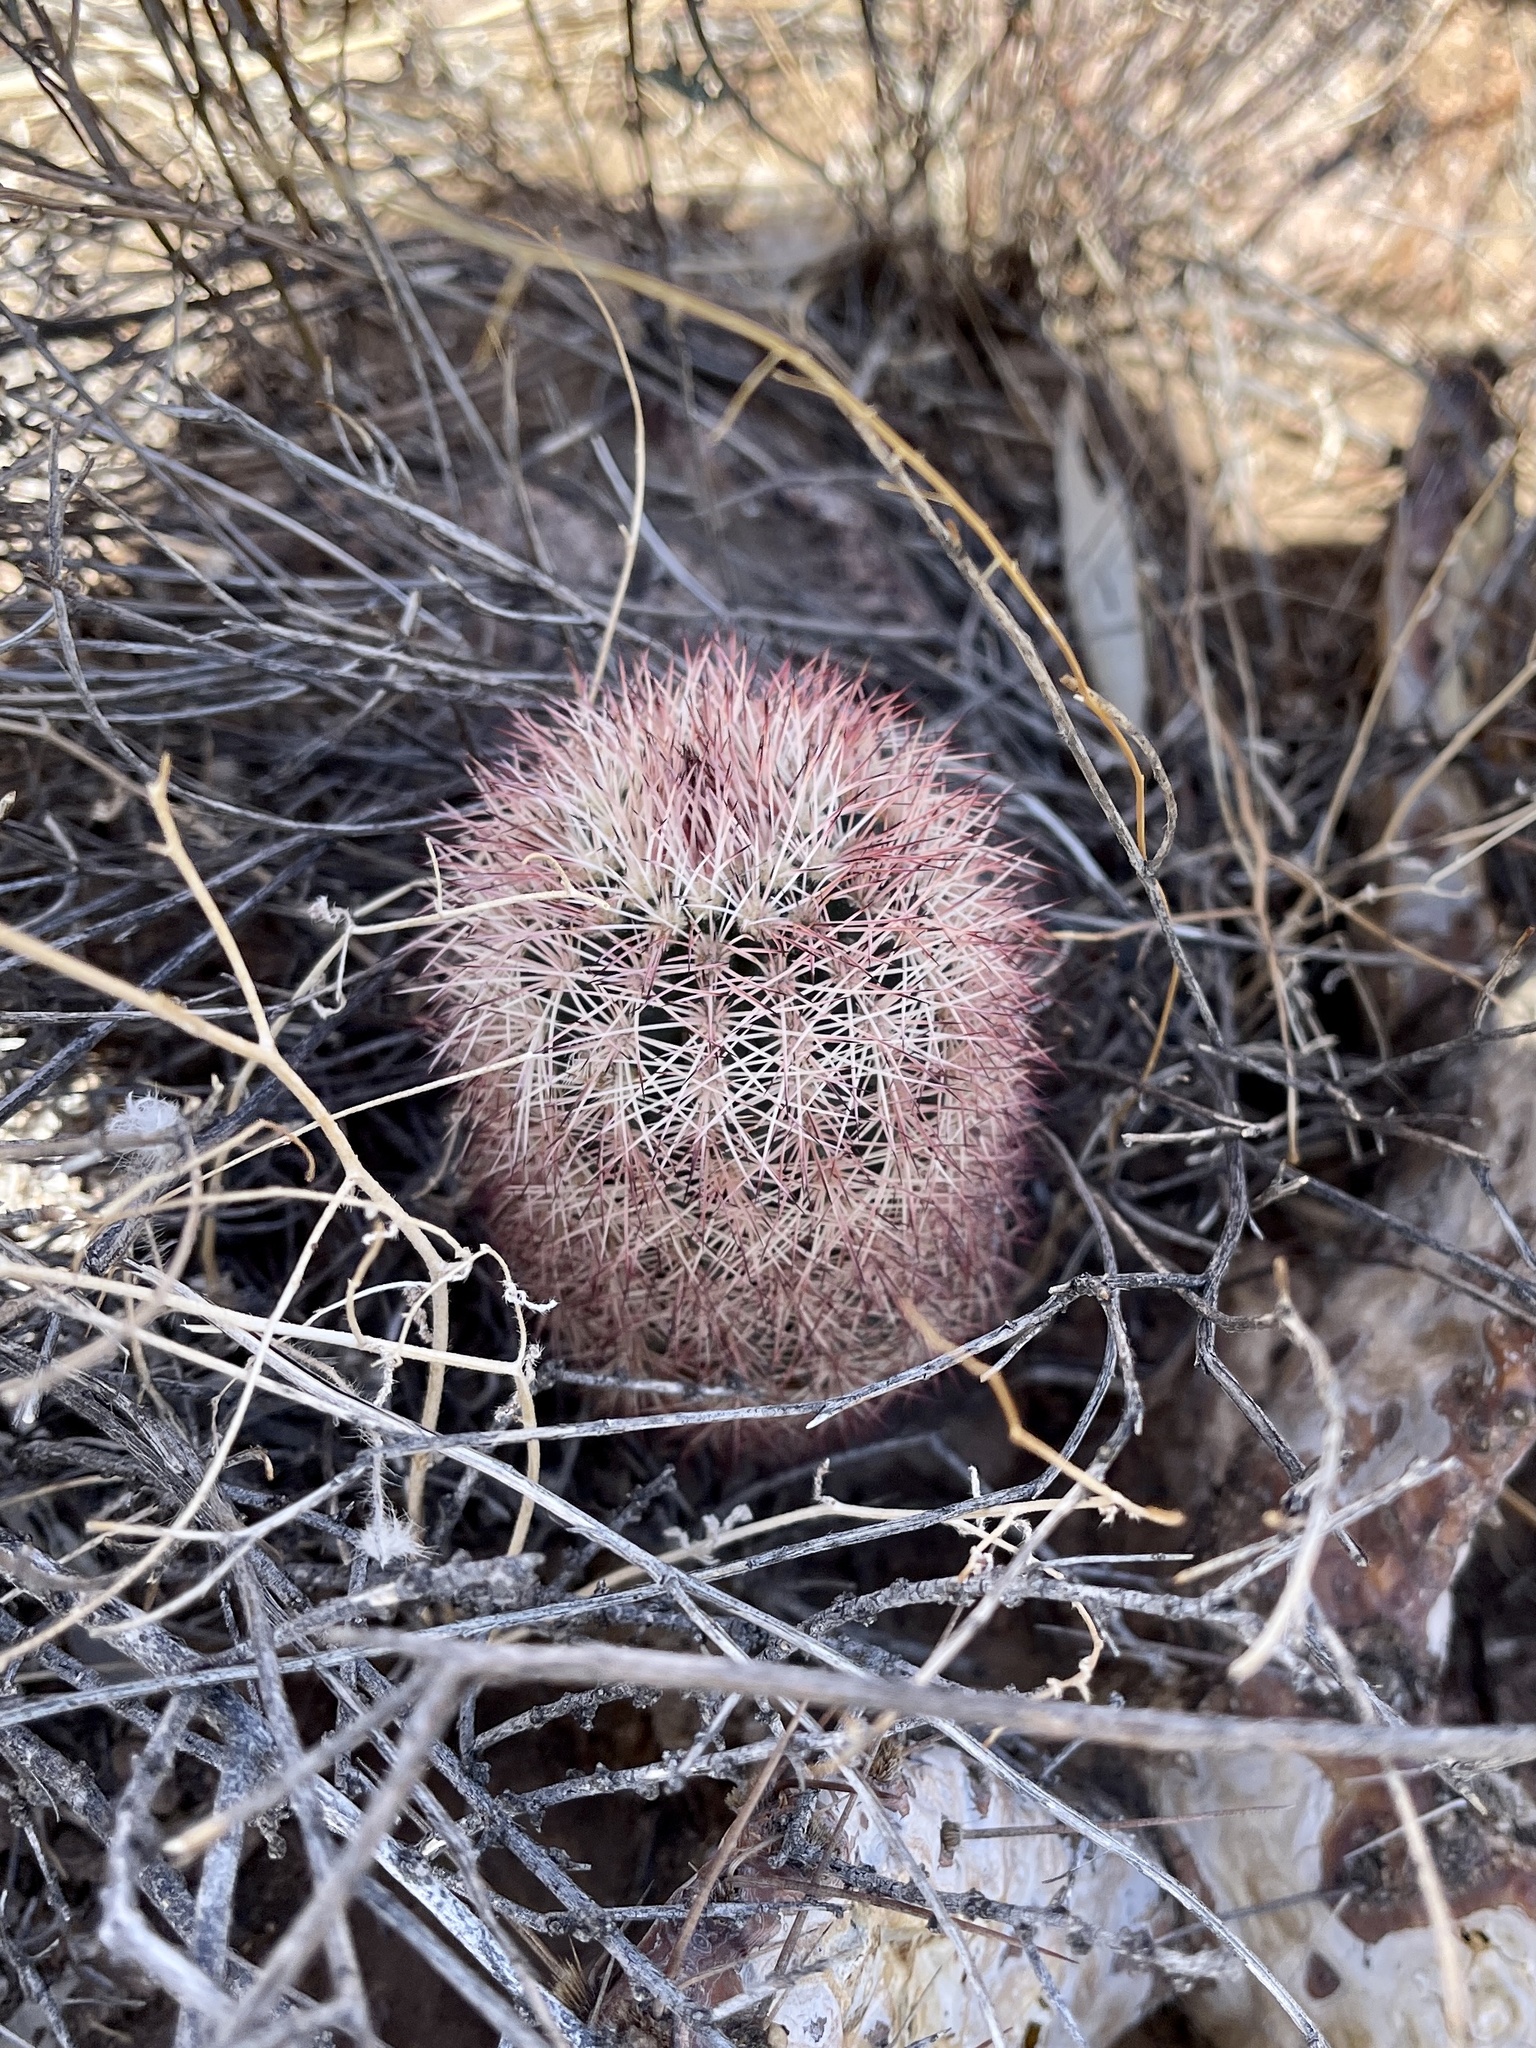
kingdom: Plantae
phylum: Tracheophyta
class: Magnoliopsida
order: Caryophyllales
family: Cactaceae
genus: Echinocereus
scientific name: Echinocereus dasyacanthus
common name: Spiny hedgehog cactus
